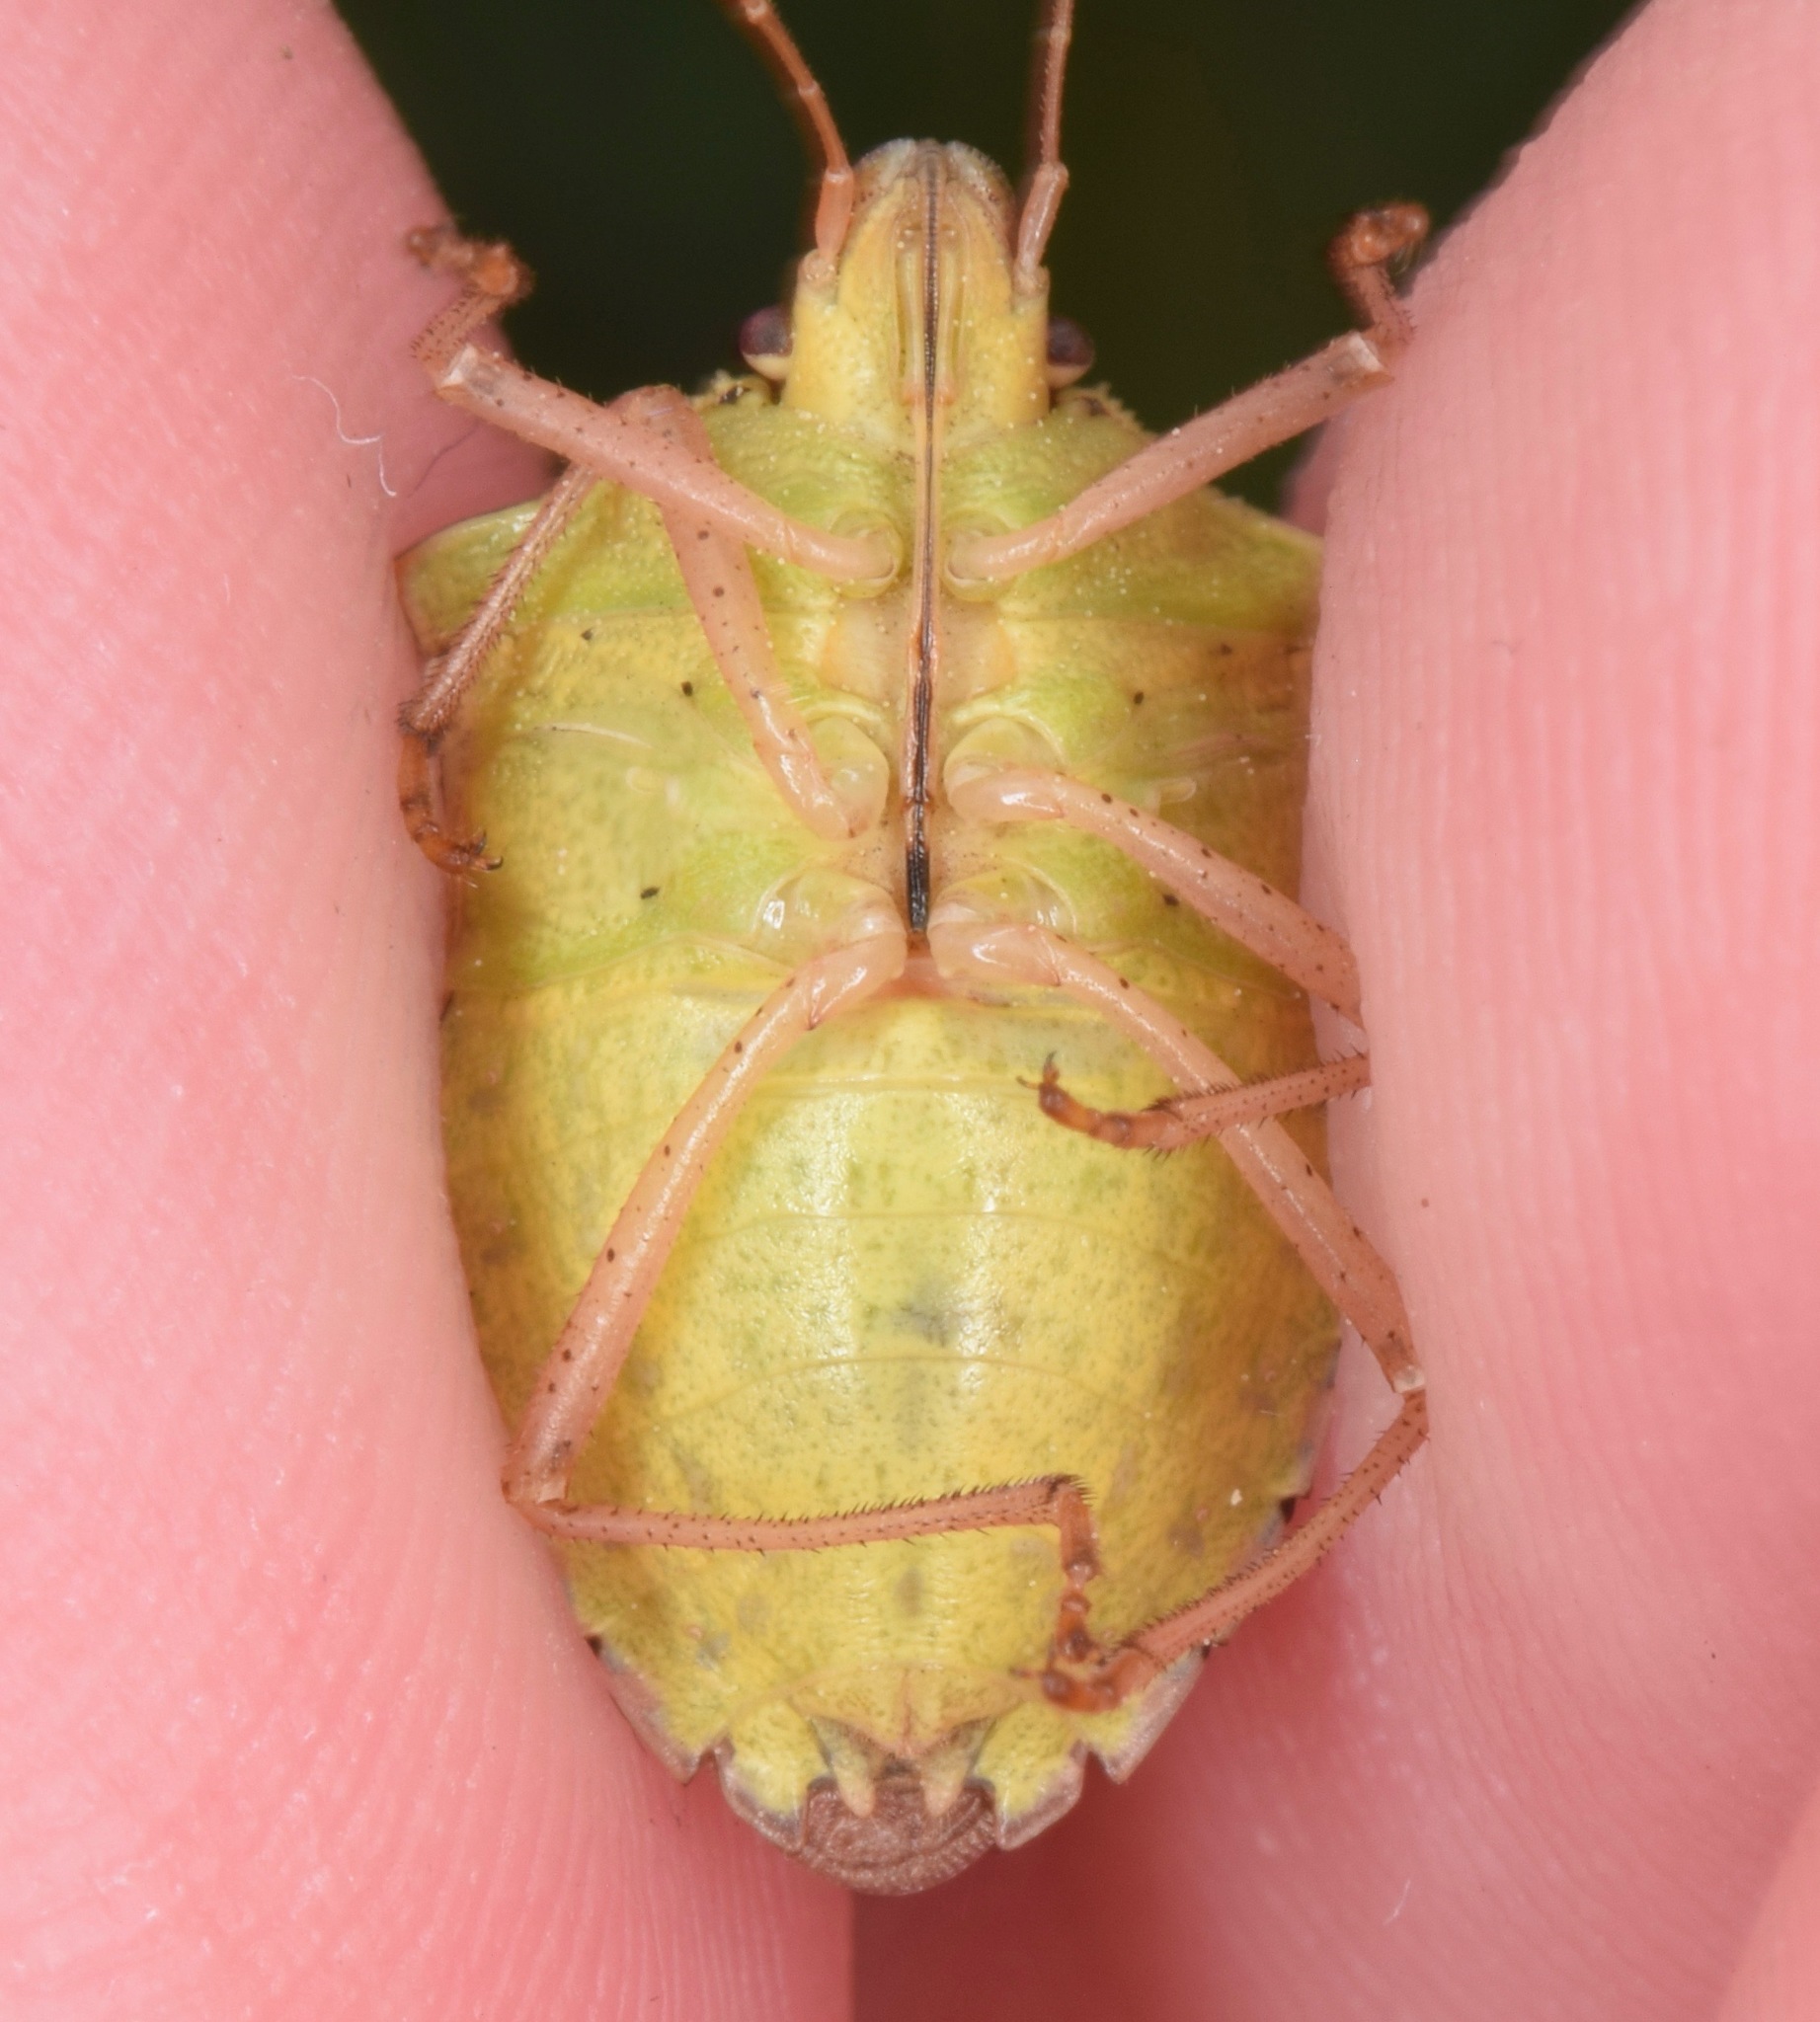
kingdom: Animalia
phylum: Arthropoda
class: Insecta
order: Hemiptera
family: Pentatomidae
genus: Euschistus
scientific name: Euschistus servus
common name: Brown stink bug
